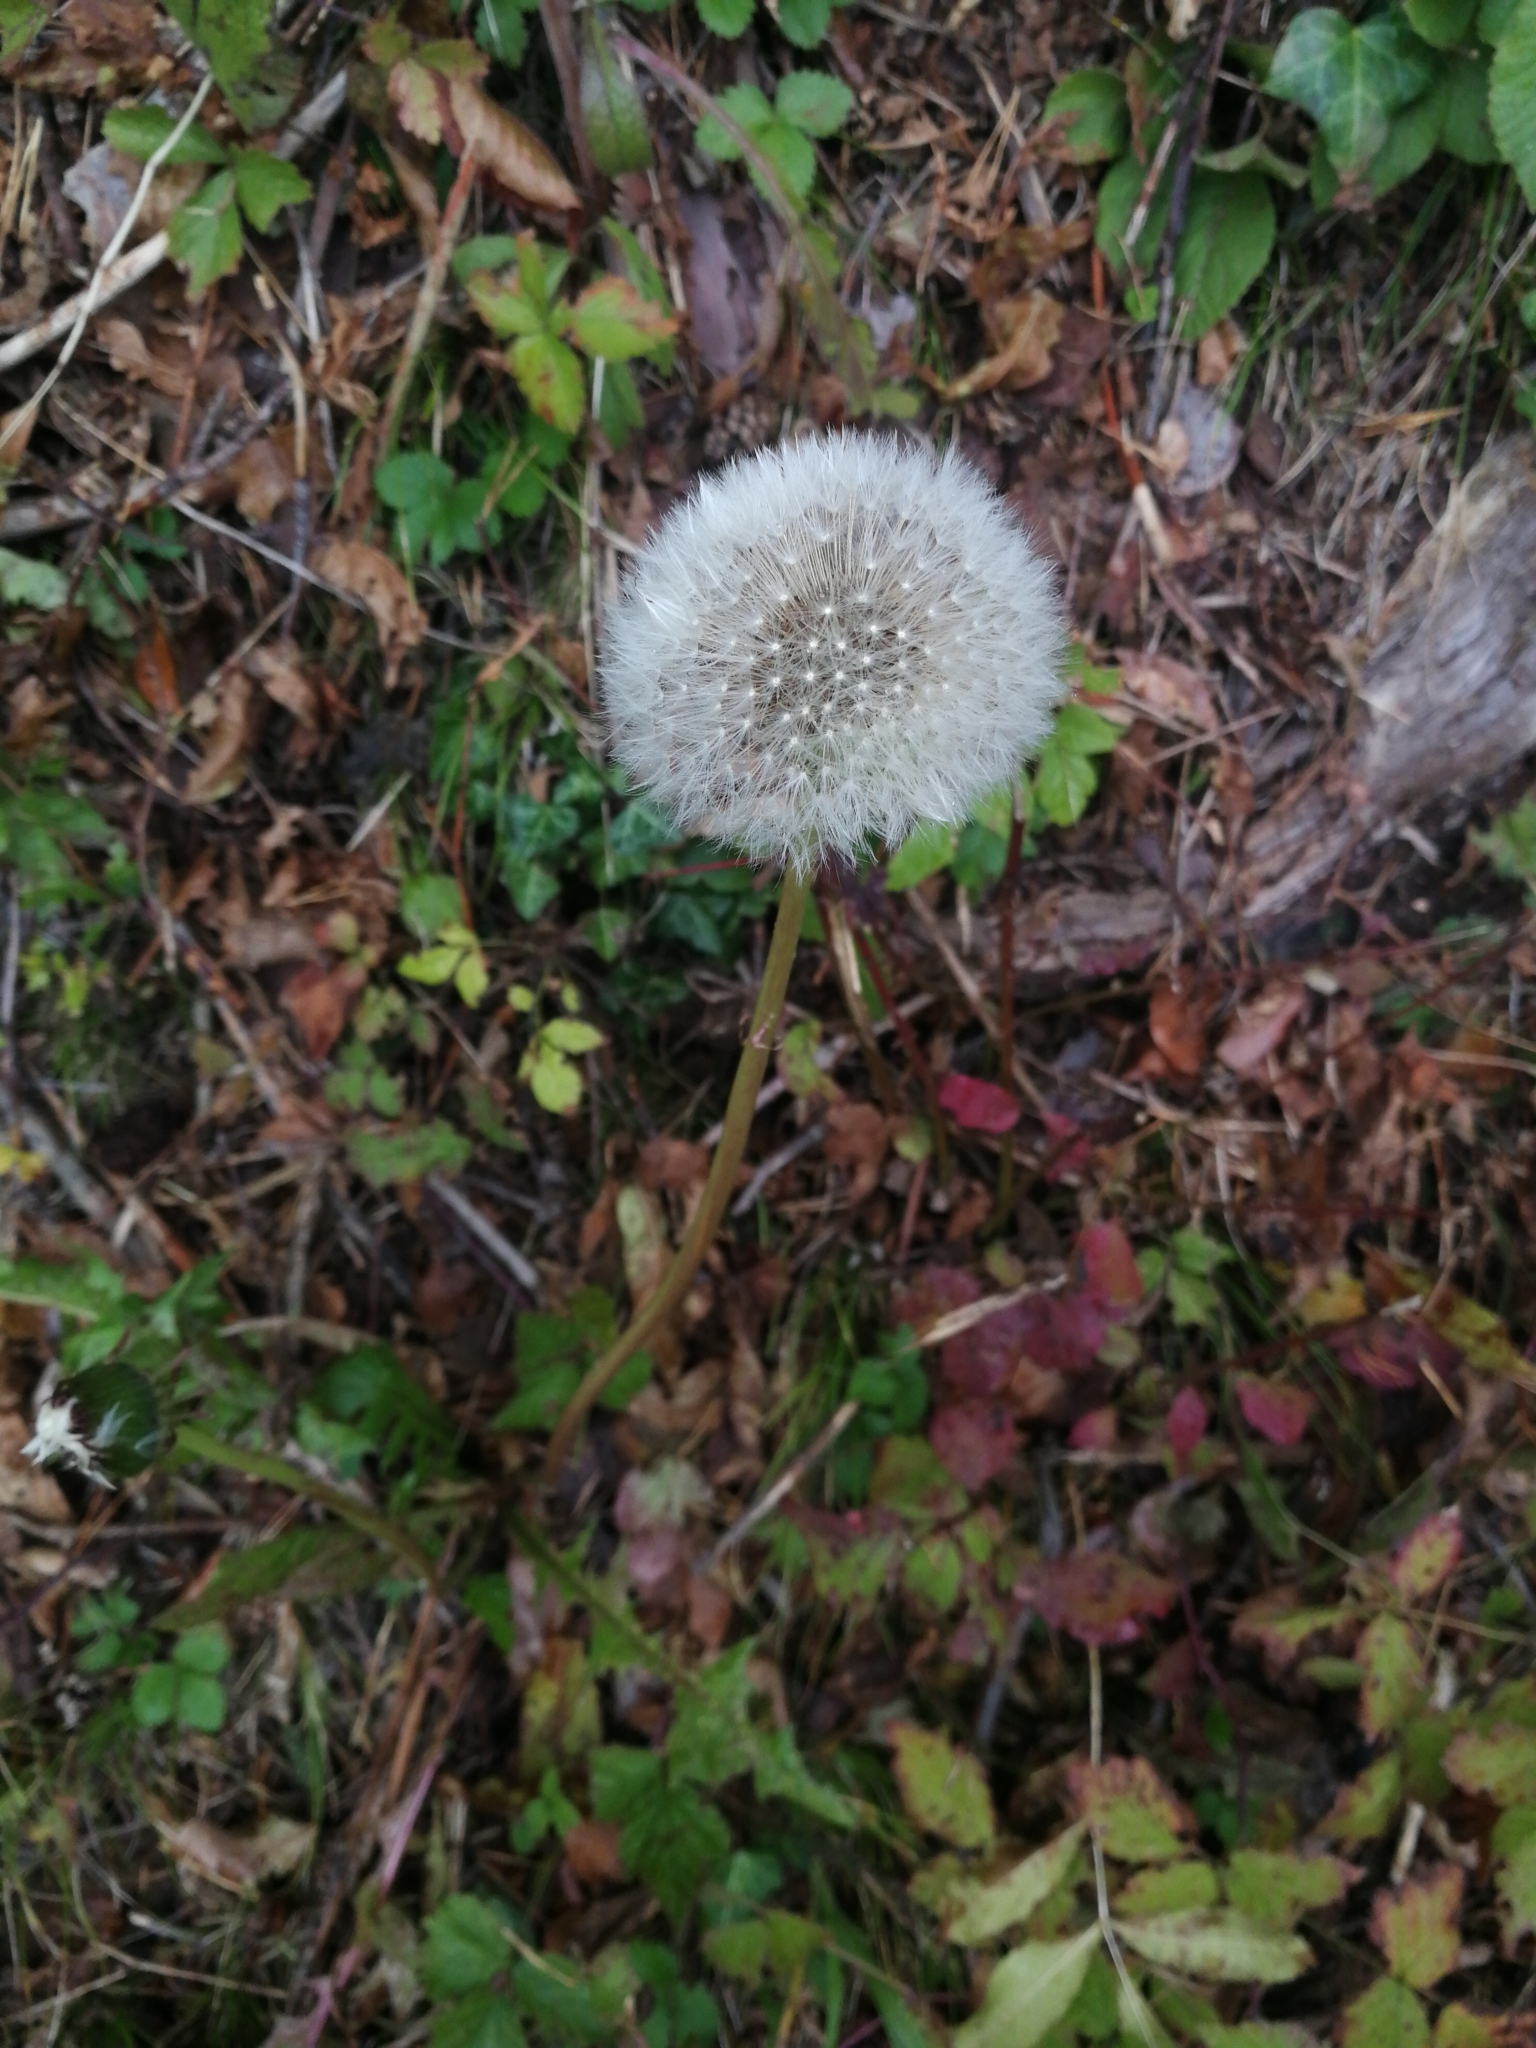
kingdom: Plantae
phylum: Tracheophyta
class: Magnoliopsida
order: Asterales
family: Asteraceae
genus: Taraxacum
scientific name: Taraxacum
